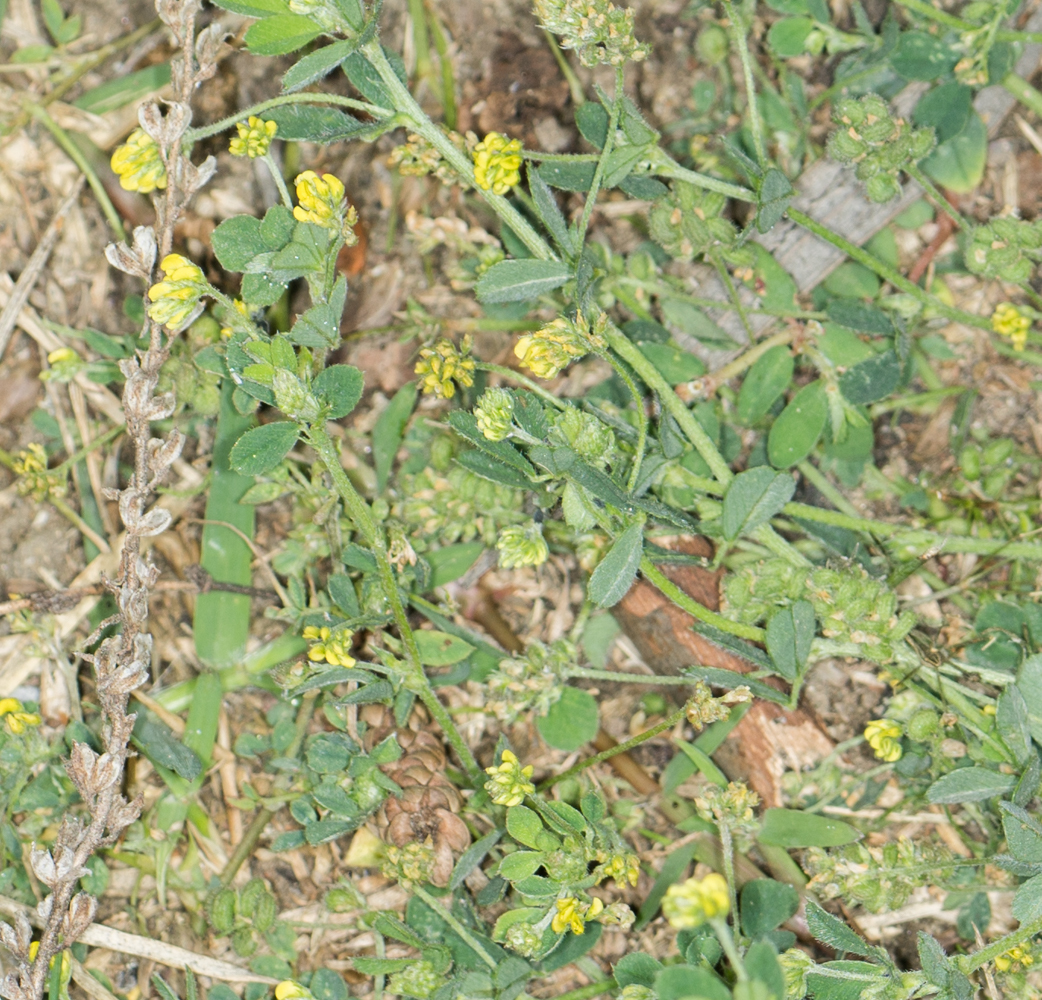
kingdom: Plantae
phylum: Tracheophyta
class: Magnoliopsida
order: Fabales
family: Fabaceae
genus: Medicago
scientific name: Medicago lupulina
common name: Black medick
